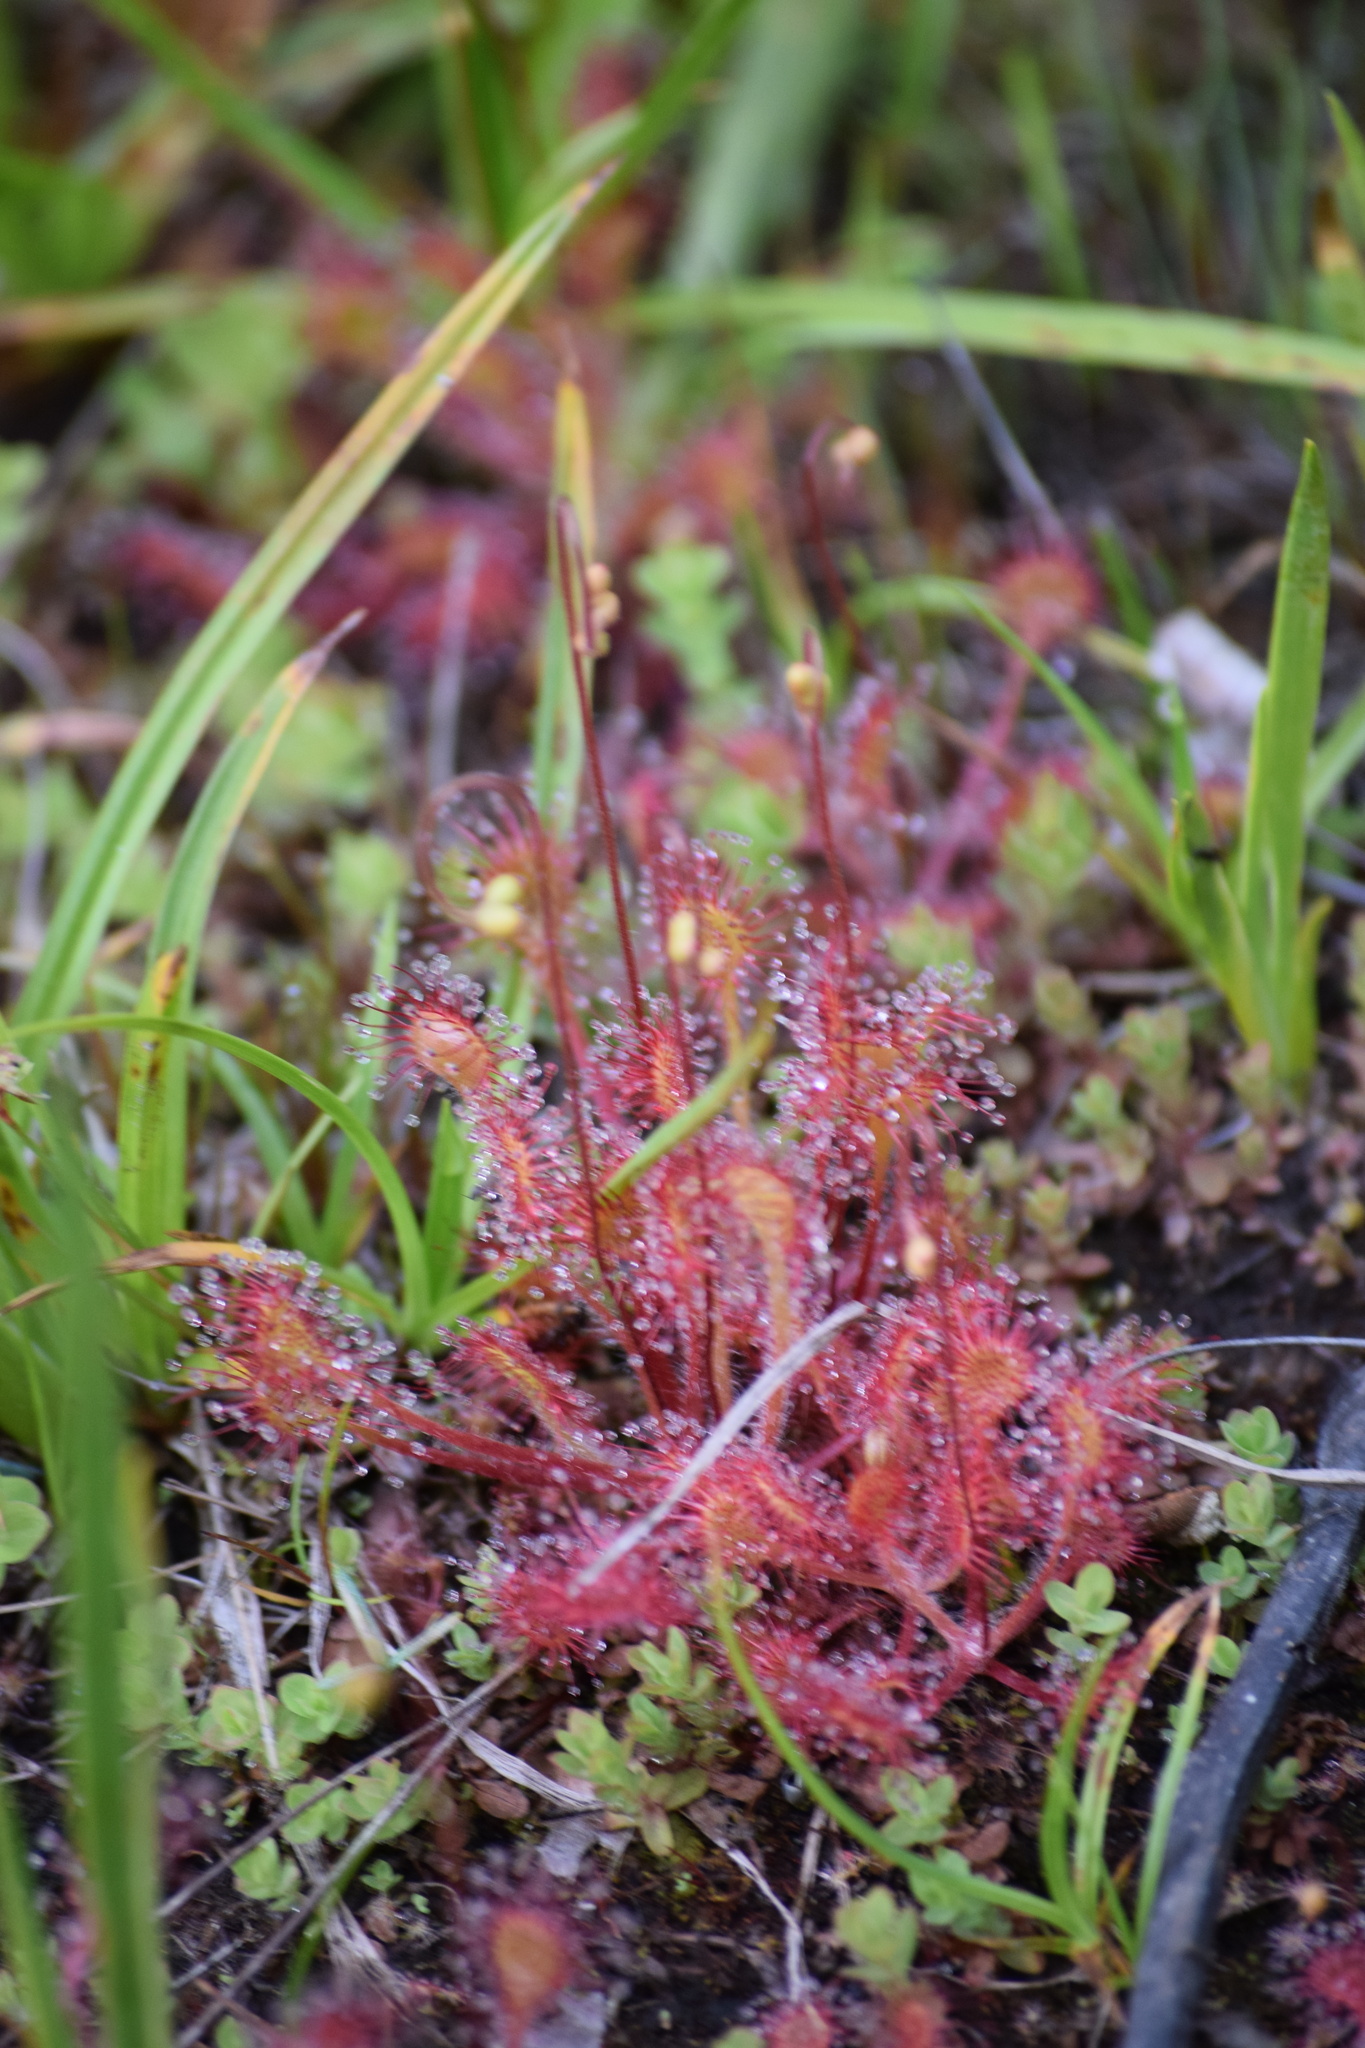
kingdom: Plantae
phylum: Tracheophyta
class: Magnoliopsida
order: Caryophyllales
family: Droseraceae
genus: Drosera
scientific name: Drosera rotundifolia
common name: Round-leaved sundew
